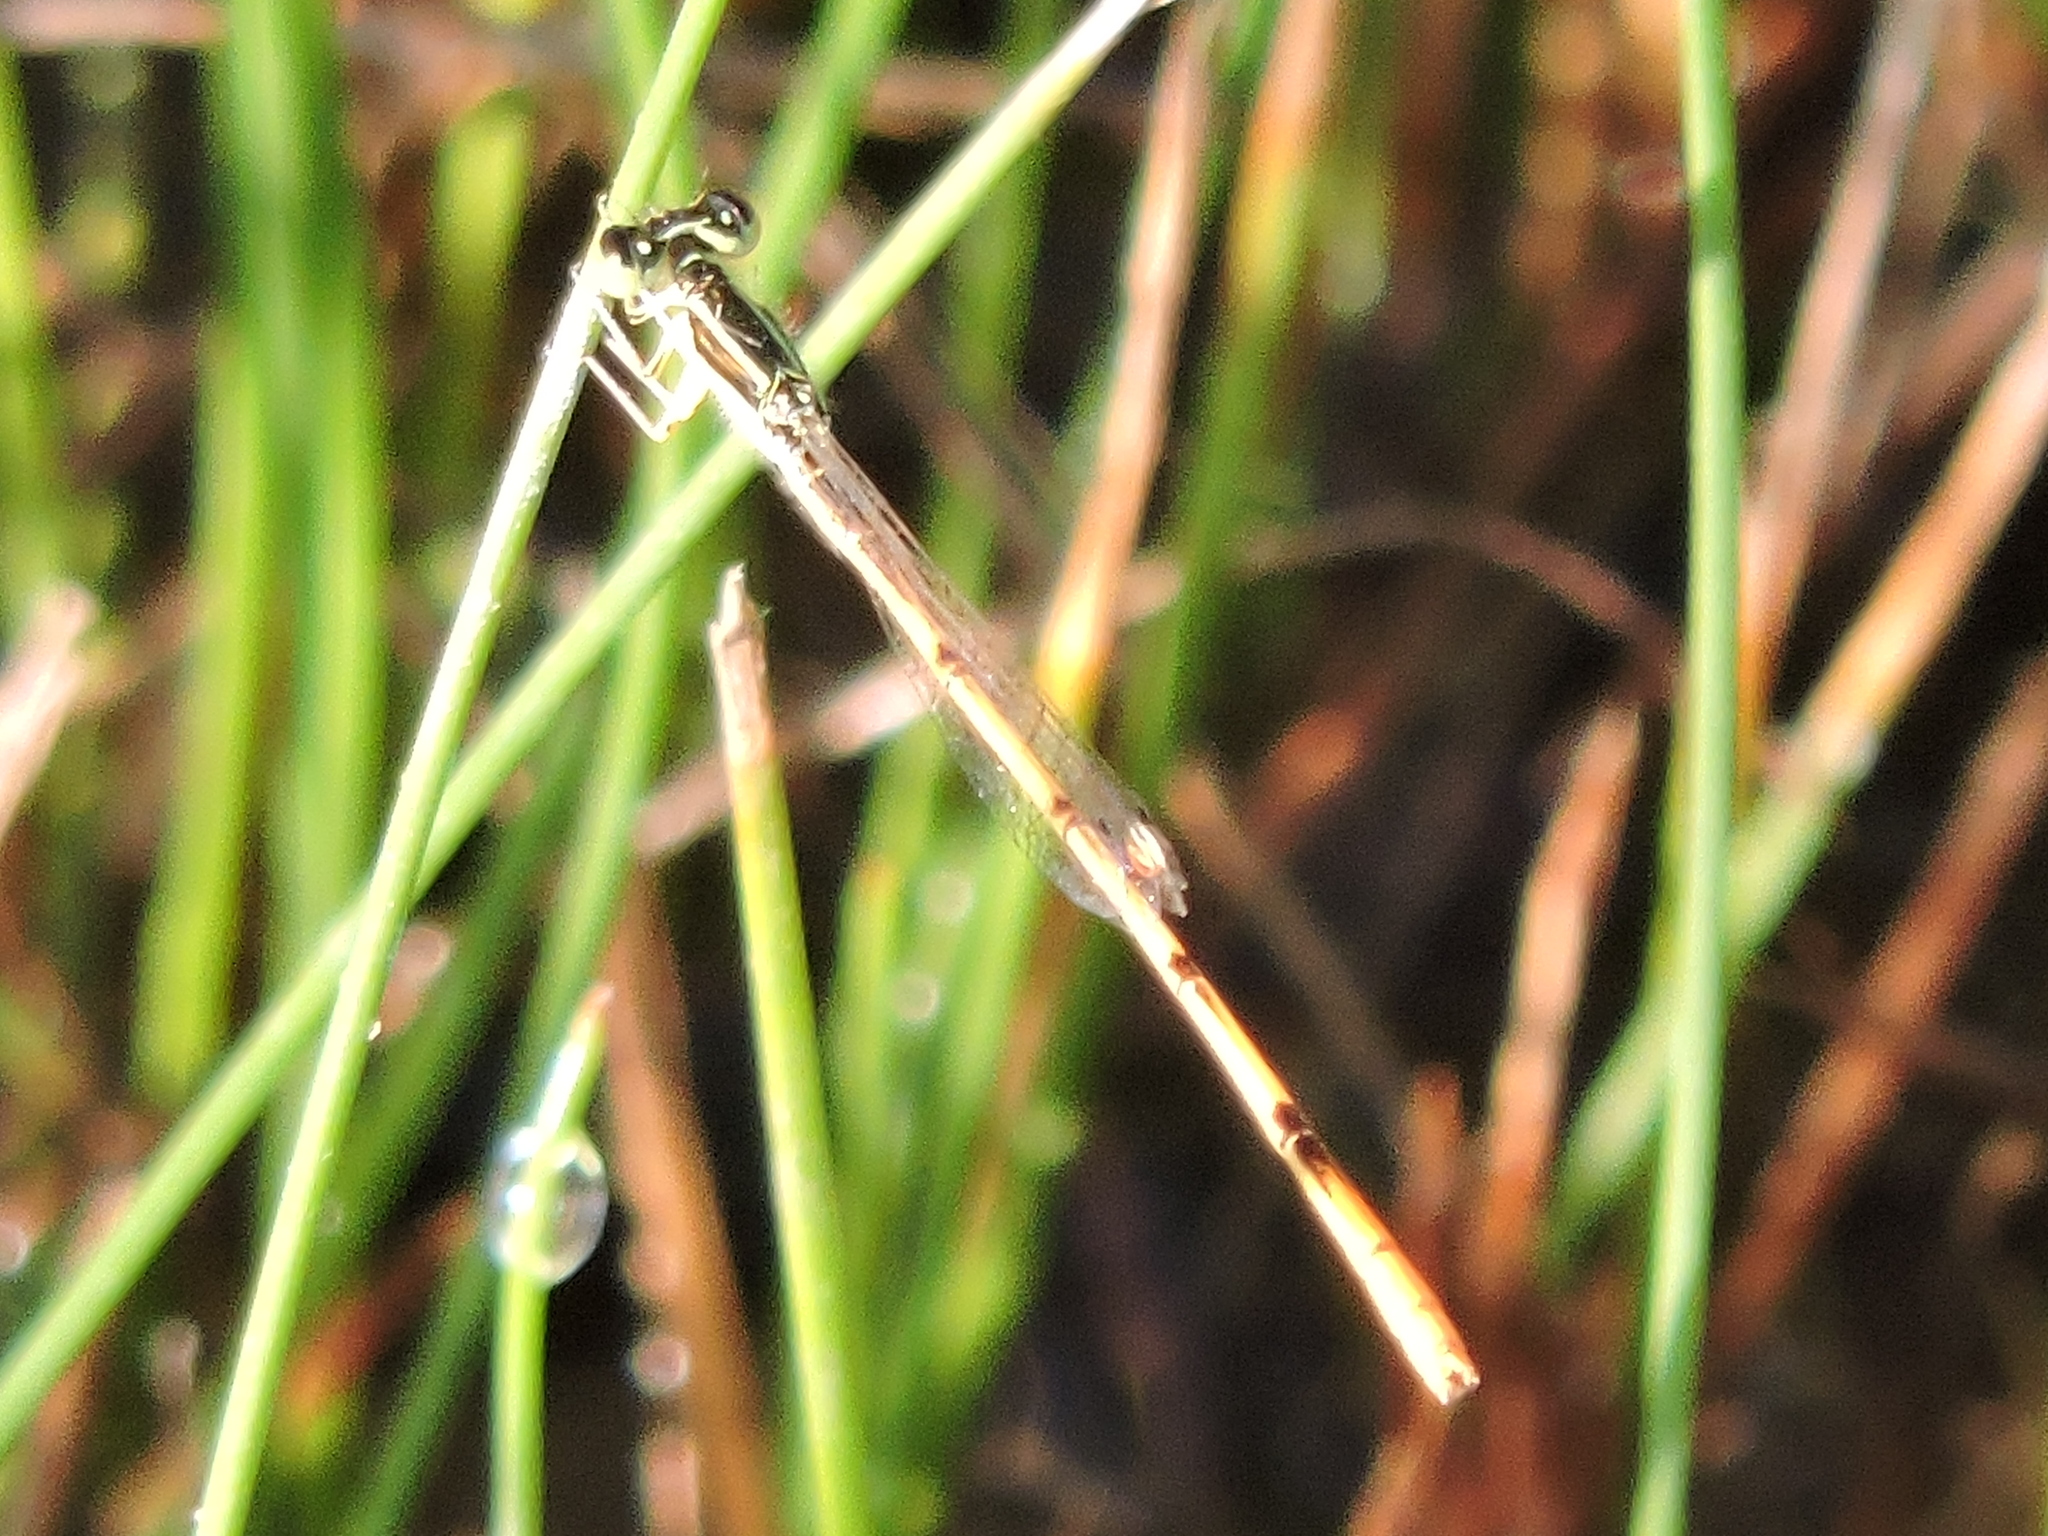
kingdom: Animalia
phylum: Arthropoda
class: Insecta
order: Odonata
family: Coenagrionidae
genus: Ischnura
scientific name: Ischnura hastata
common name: Citrine forktail
